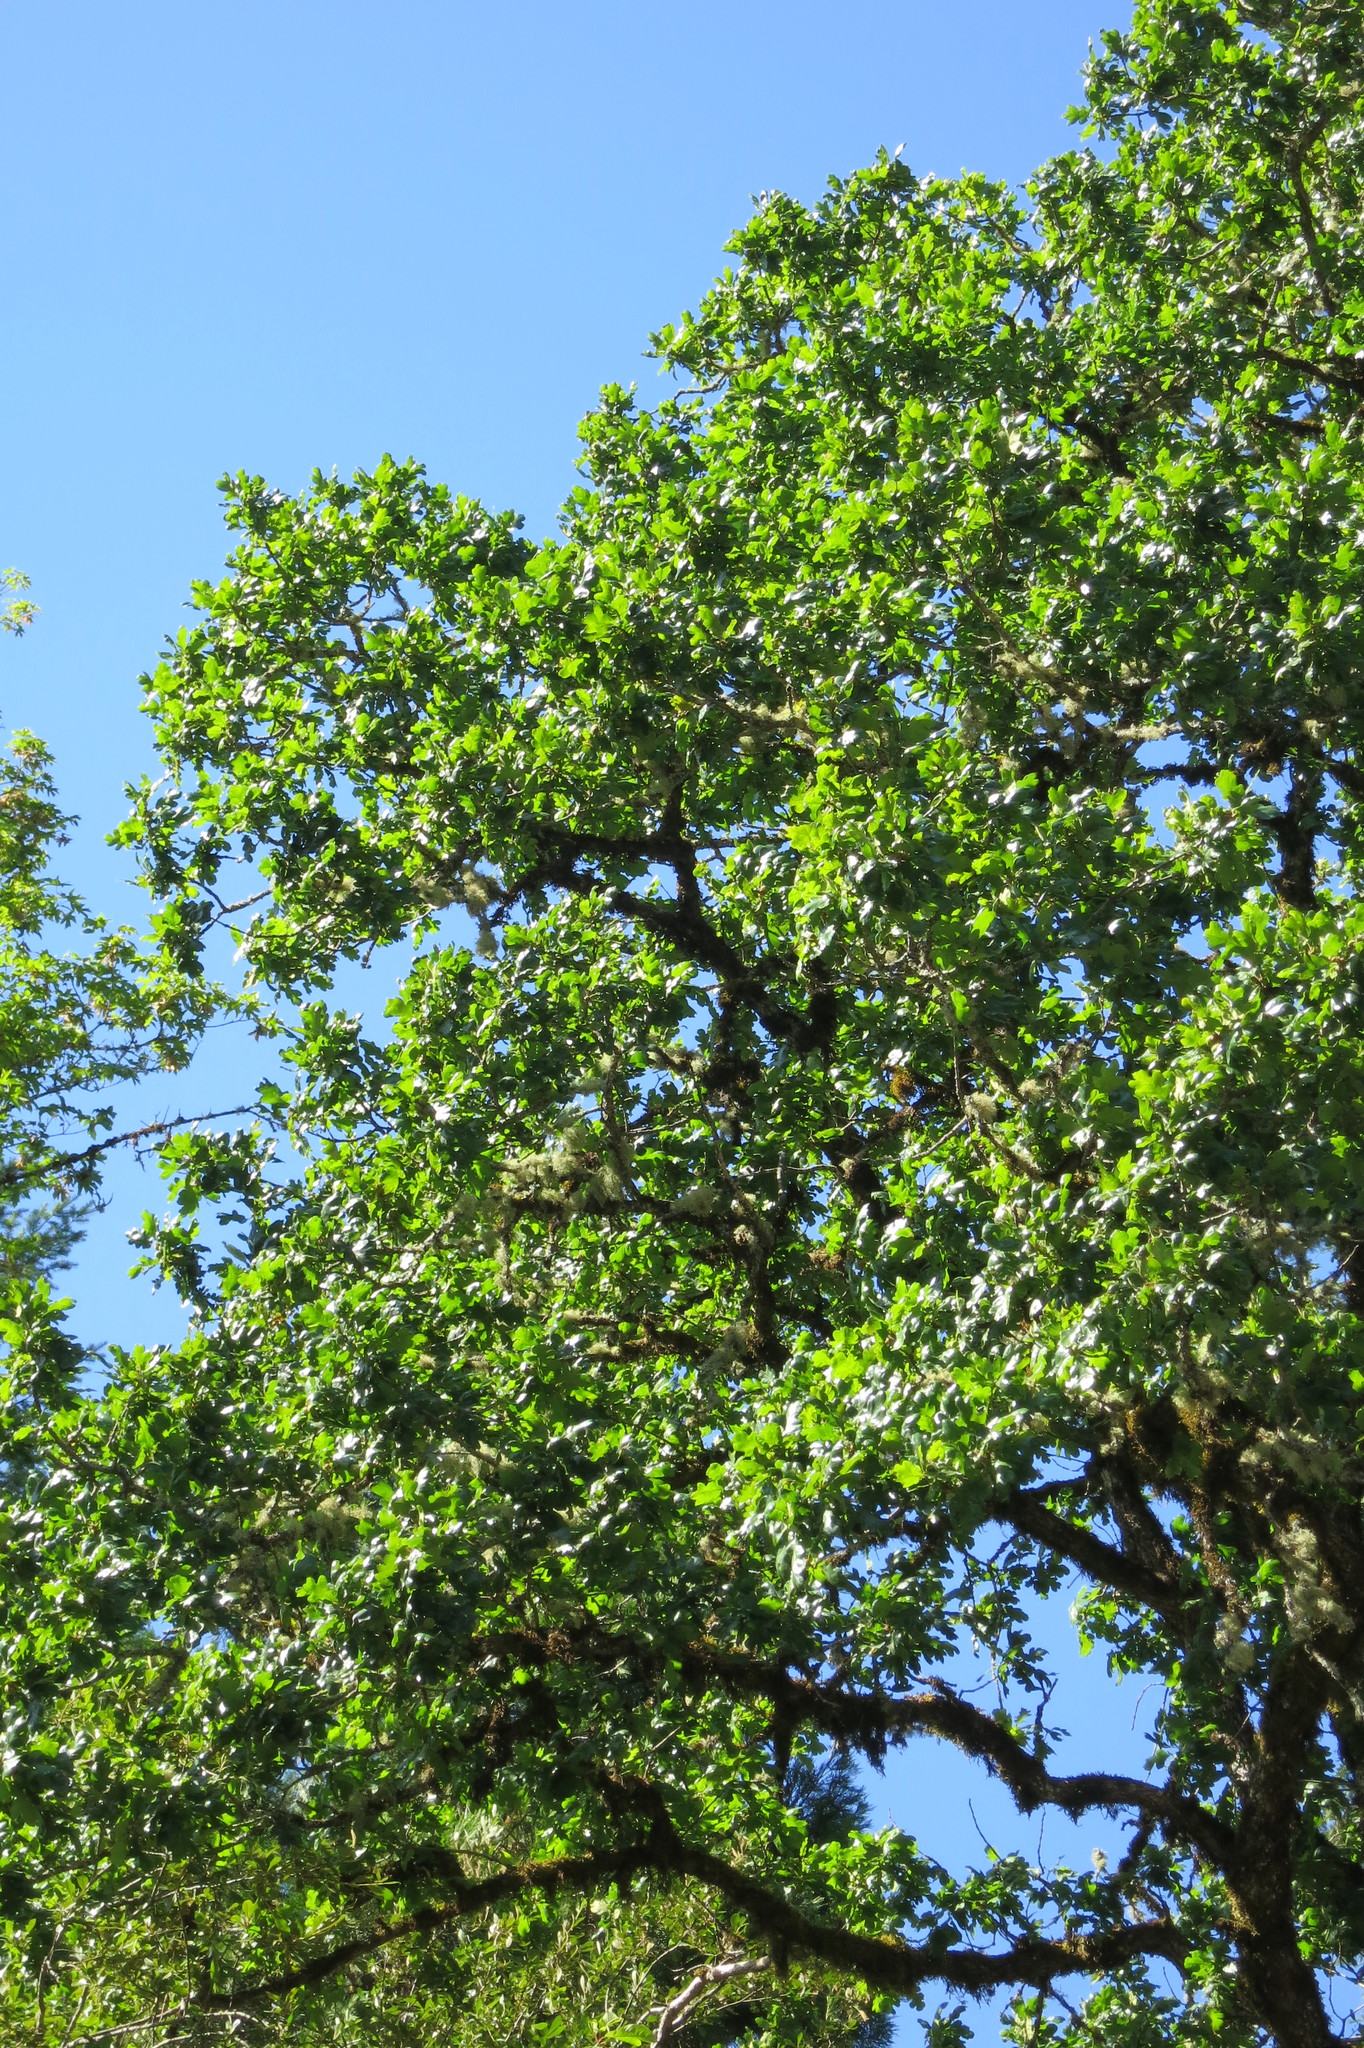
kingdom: Plantae
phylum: Tracheophyta
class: Magnoliopsida
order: Fagales
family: Fagaceae
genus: Quercus
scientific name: Quercus garryana
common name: Garry oak
